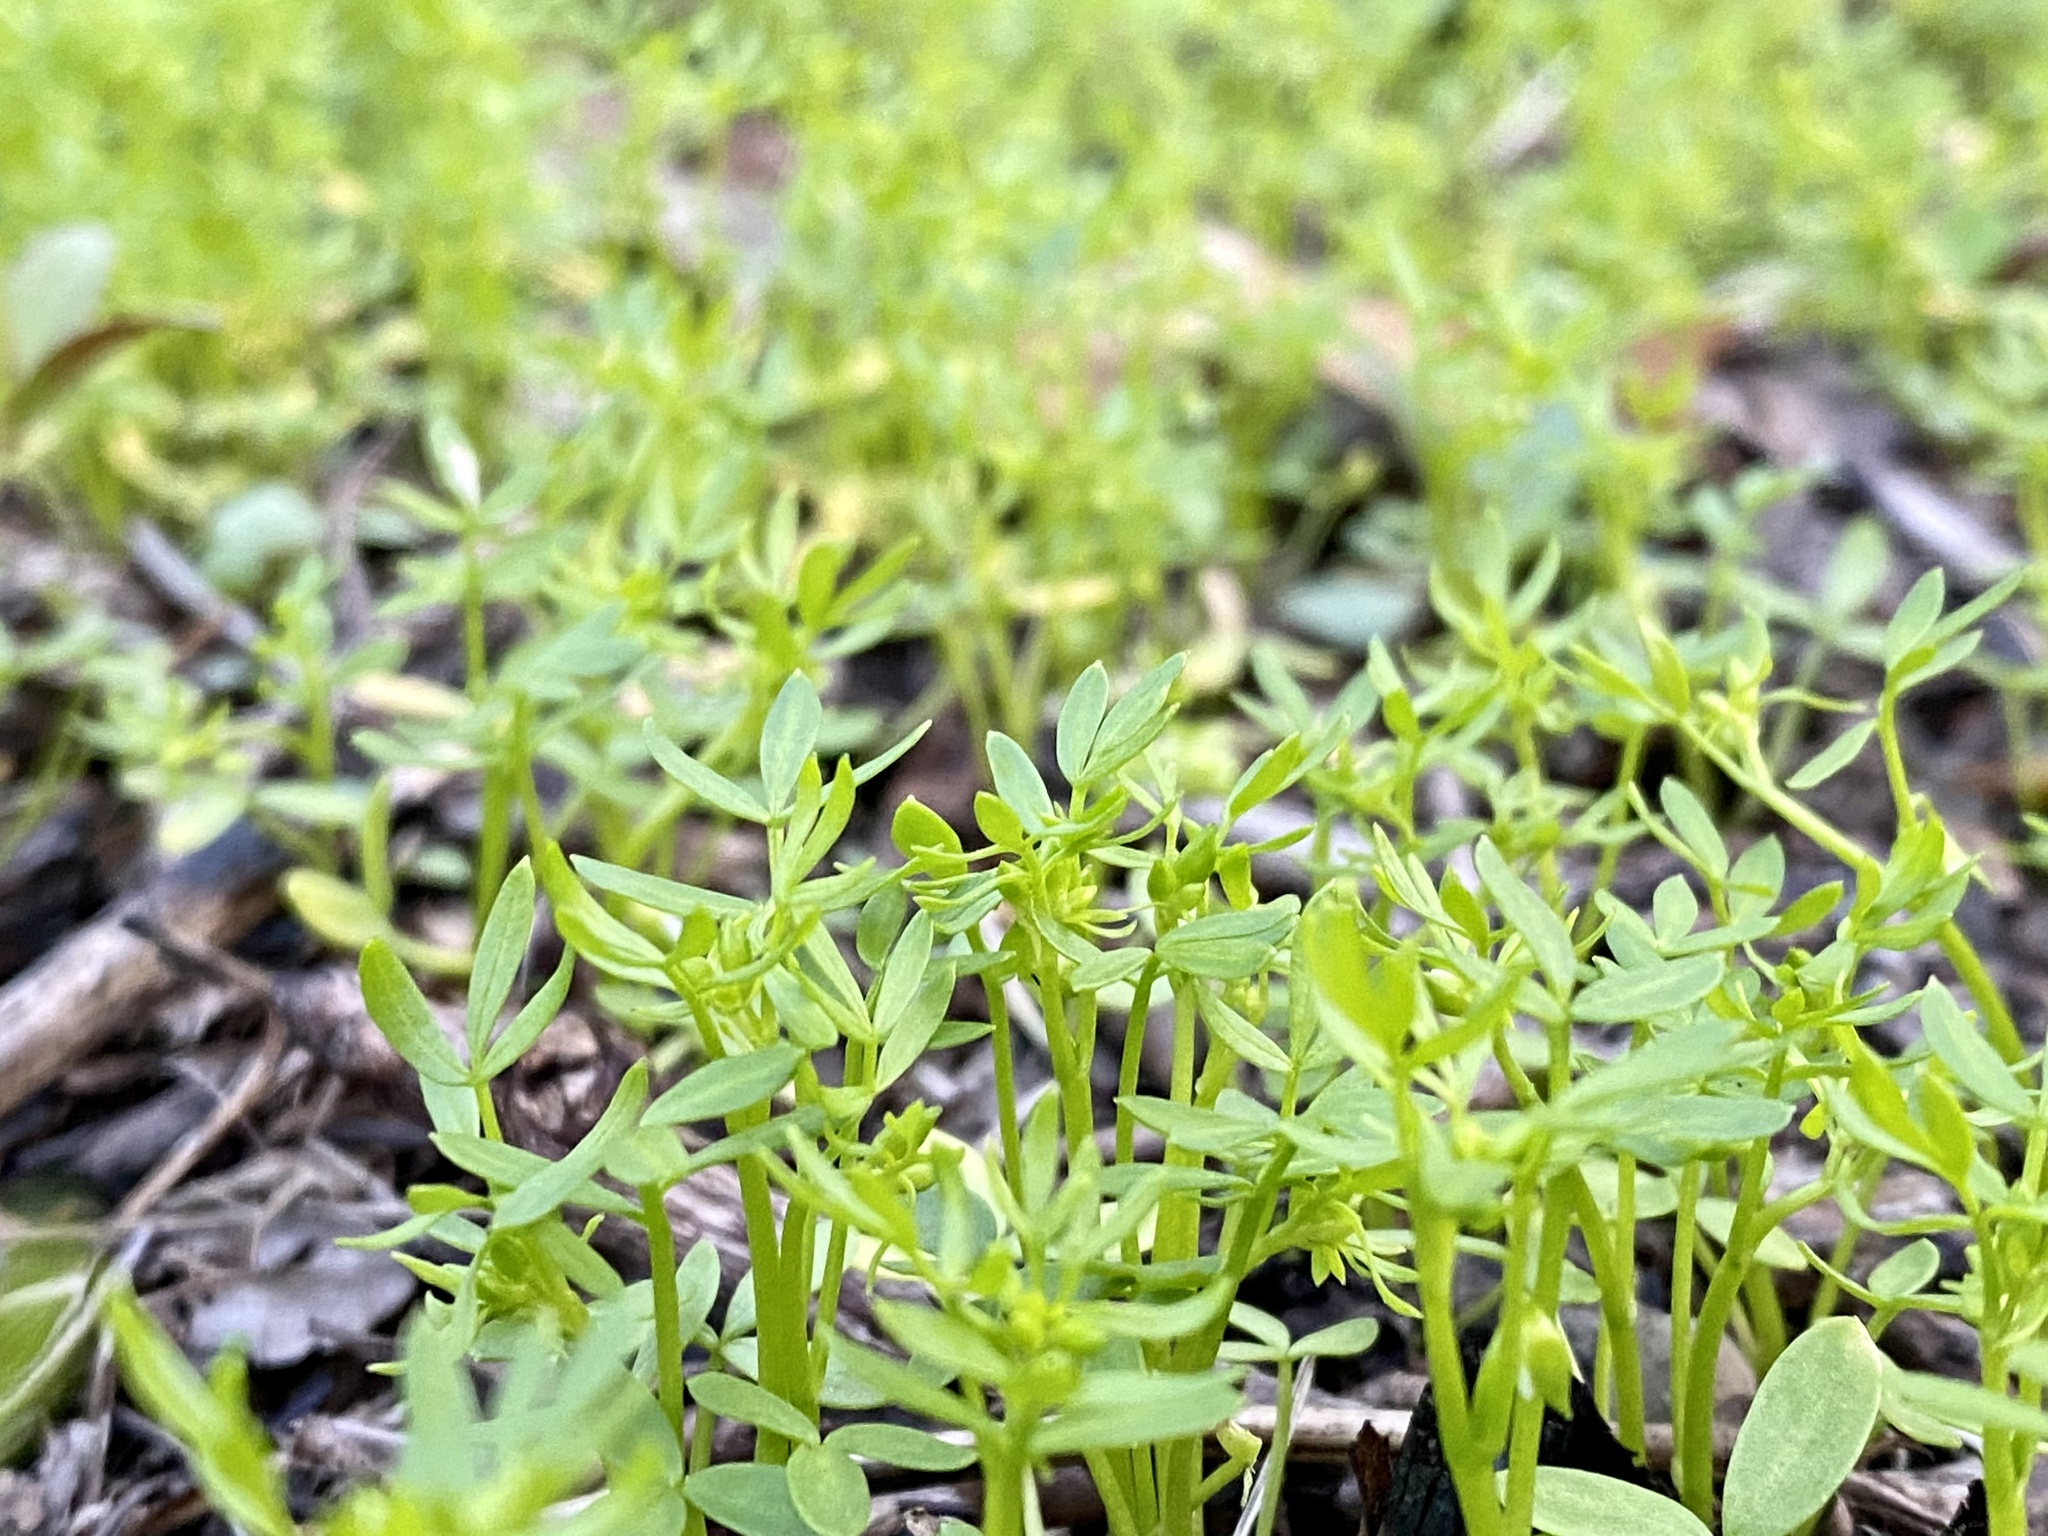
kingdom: Plantae
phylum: Tracheophyta
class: Magnoliopsida
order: Brassicales
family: Limnanthaceae
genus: Floerkea
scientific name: Floerkea proserpinacoides
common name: False mermaid
